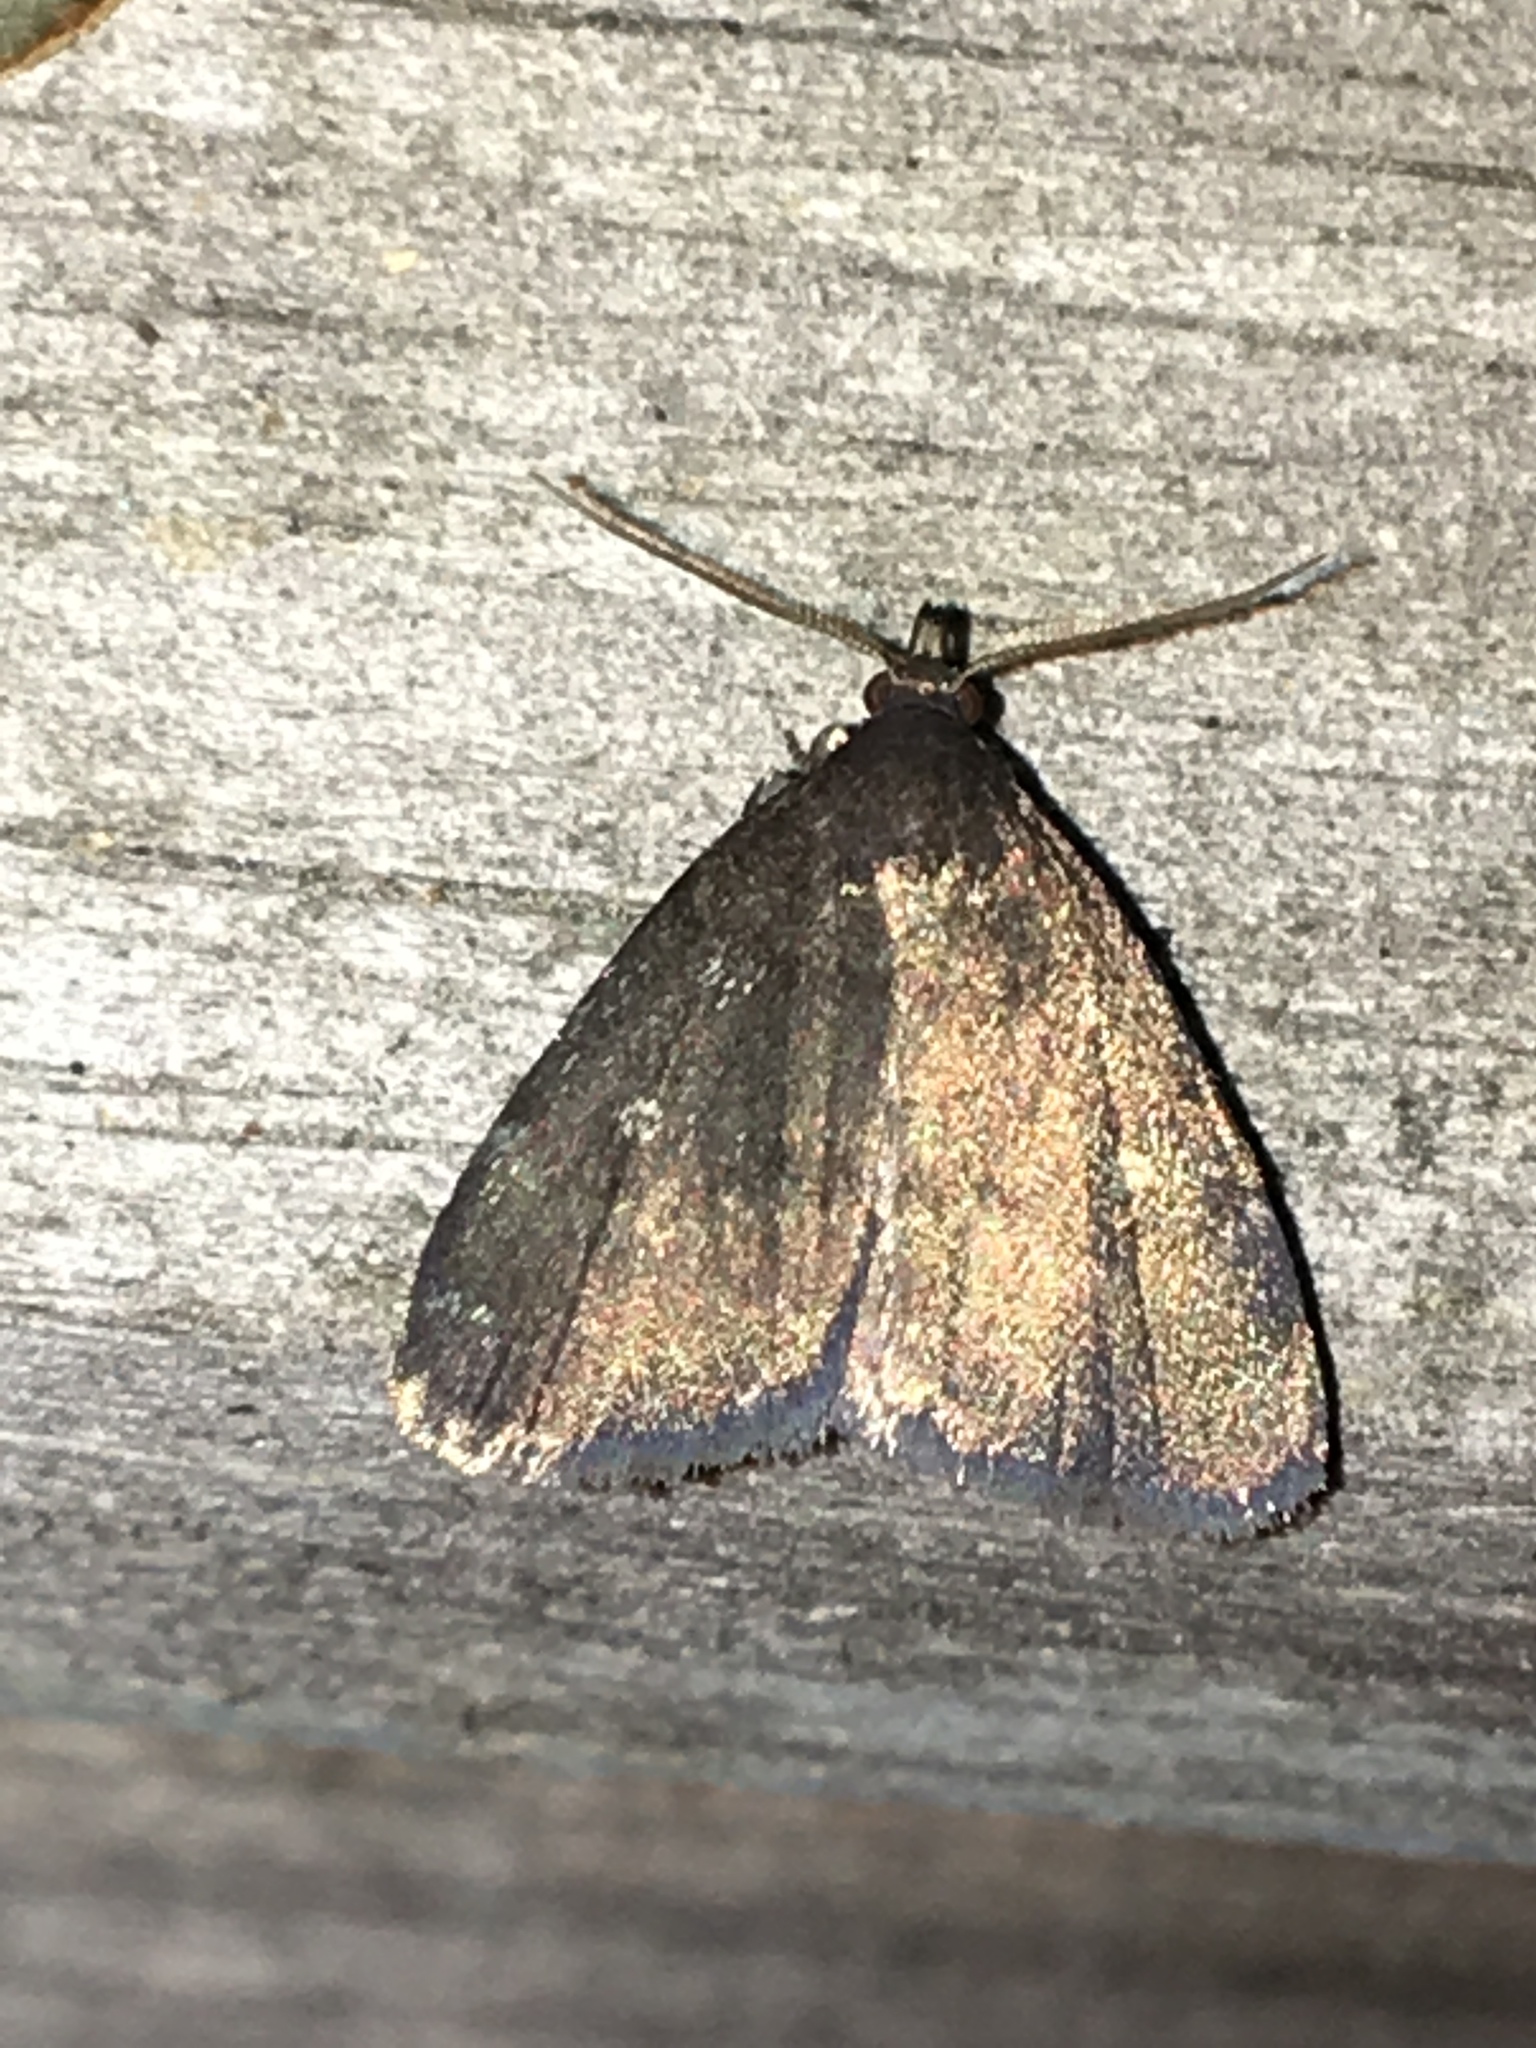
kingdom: Animalia
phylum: Arthropoda
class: Insecta
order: Lepidoptera
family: Erebidae
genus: Idia
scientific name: Idia rotundalis
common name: Rotund idia moth
